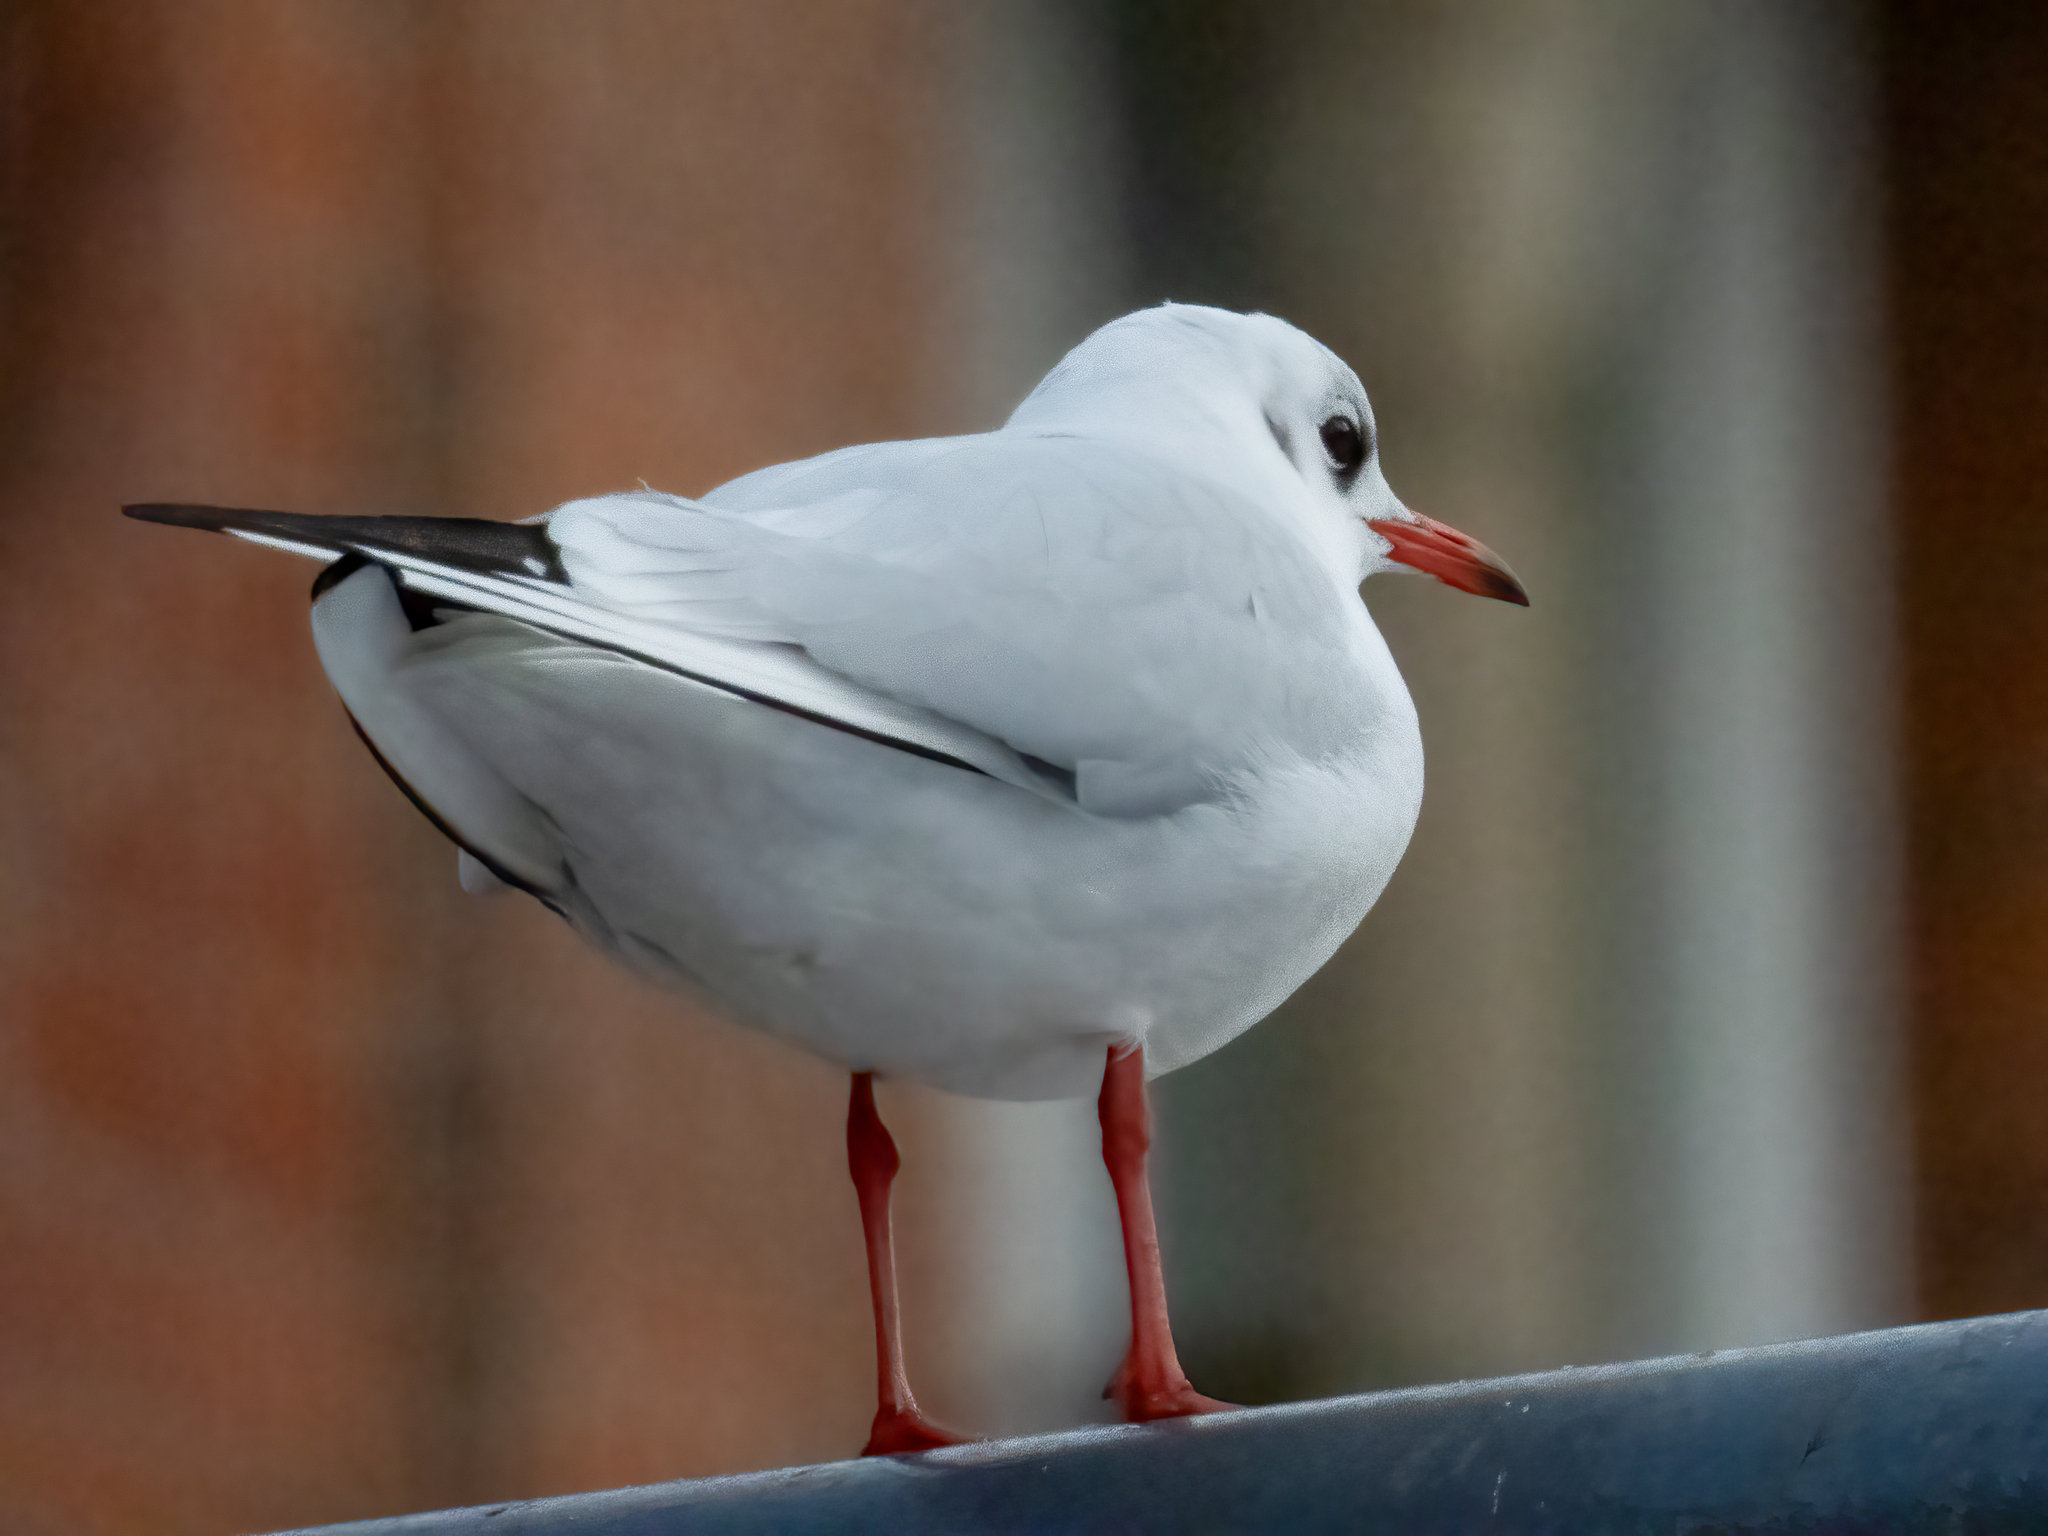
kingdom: Animalia
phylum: Chordata
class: Aves
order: Charadriiformes
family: Laridae
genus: Chroicocephalus
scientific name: Chroicocephalus ridibundus
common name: Black-headed gull
